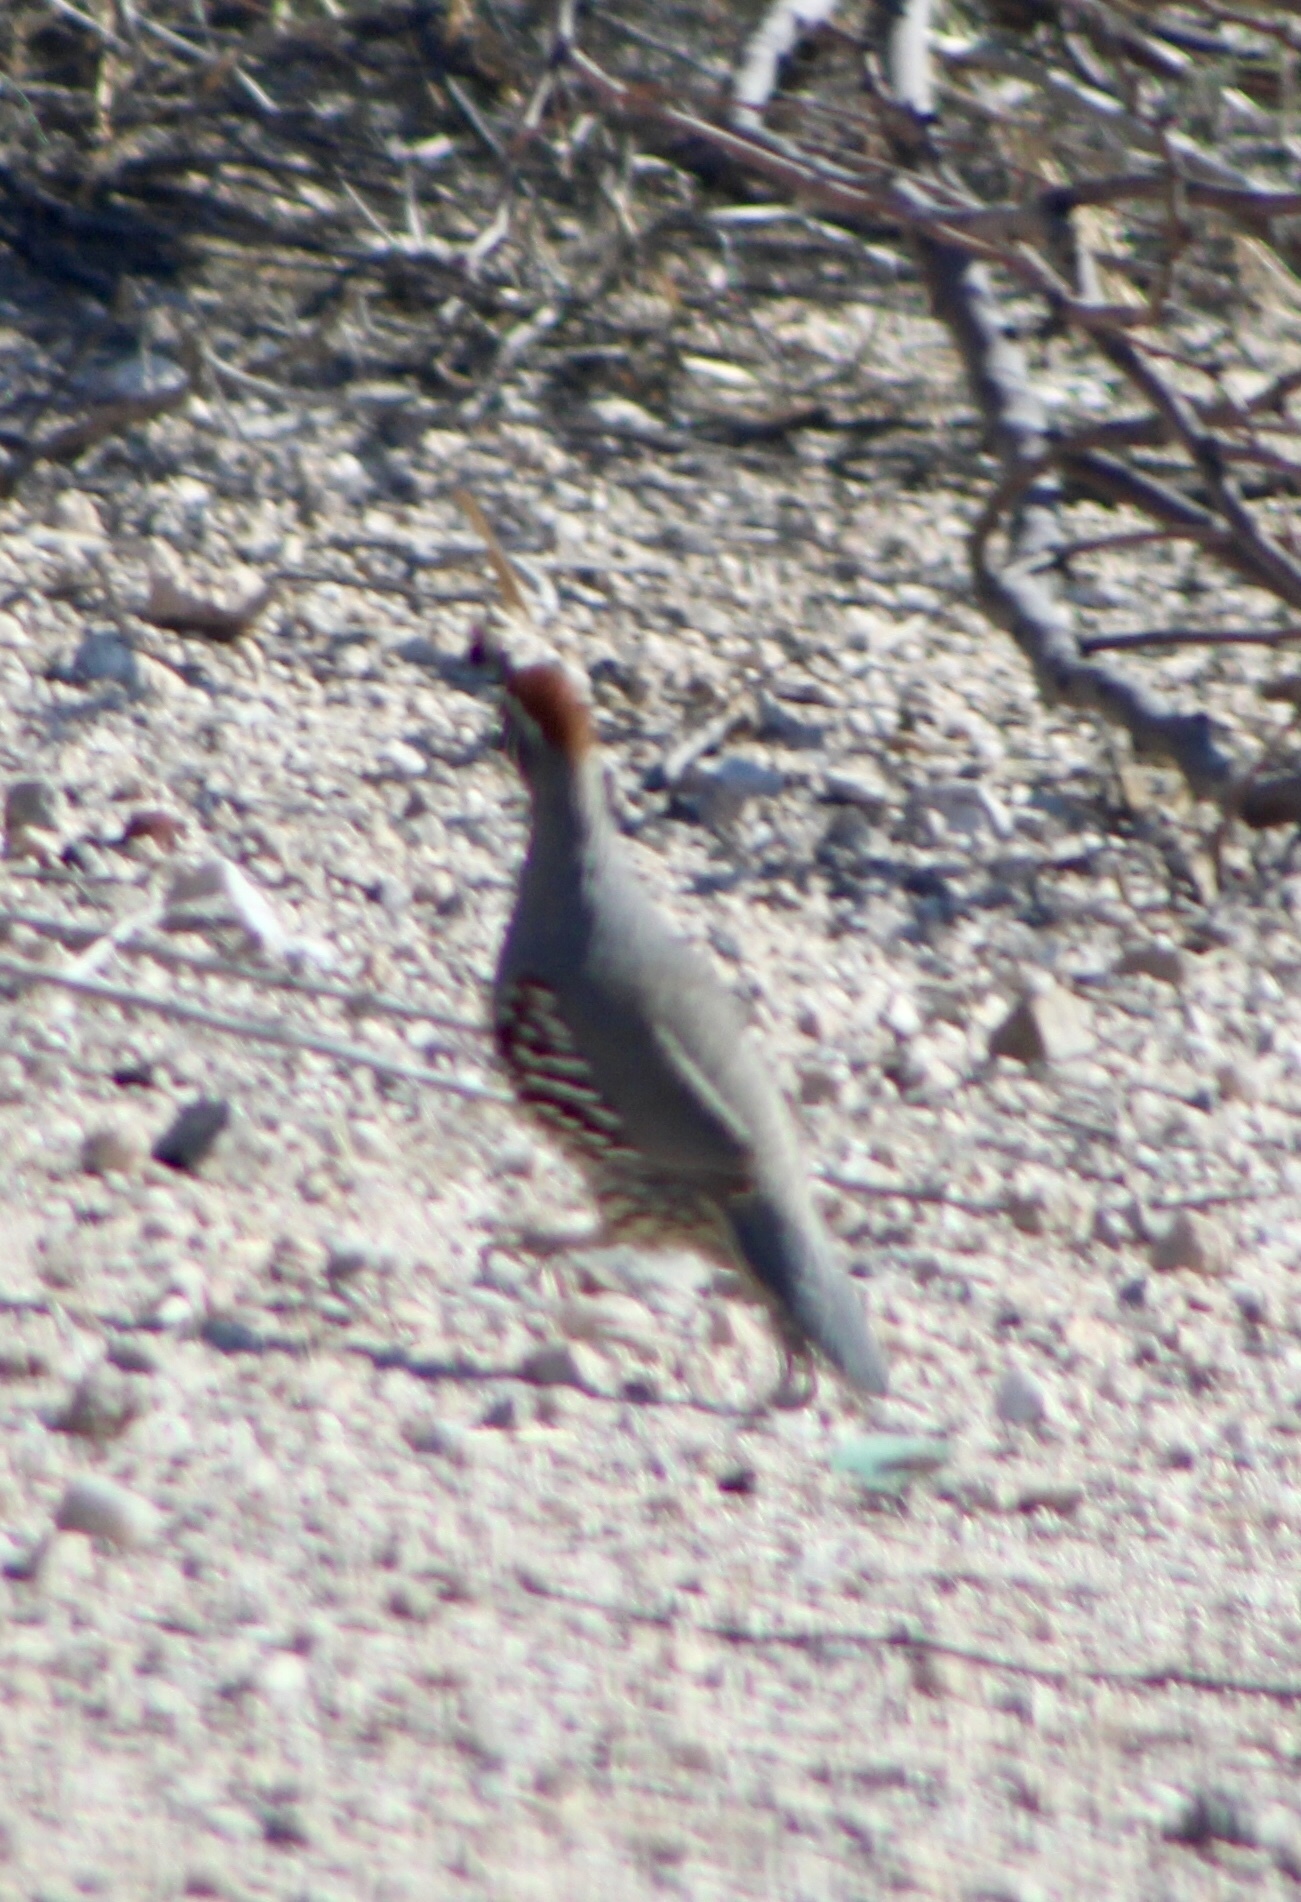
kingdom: Animalia
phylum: Chordata
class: Aves
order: Galliformes
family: Odontophoridae
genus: Callipepla
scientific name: Callipepla gambelii
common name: Gambel's quail
